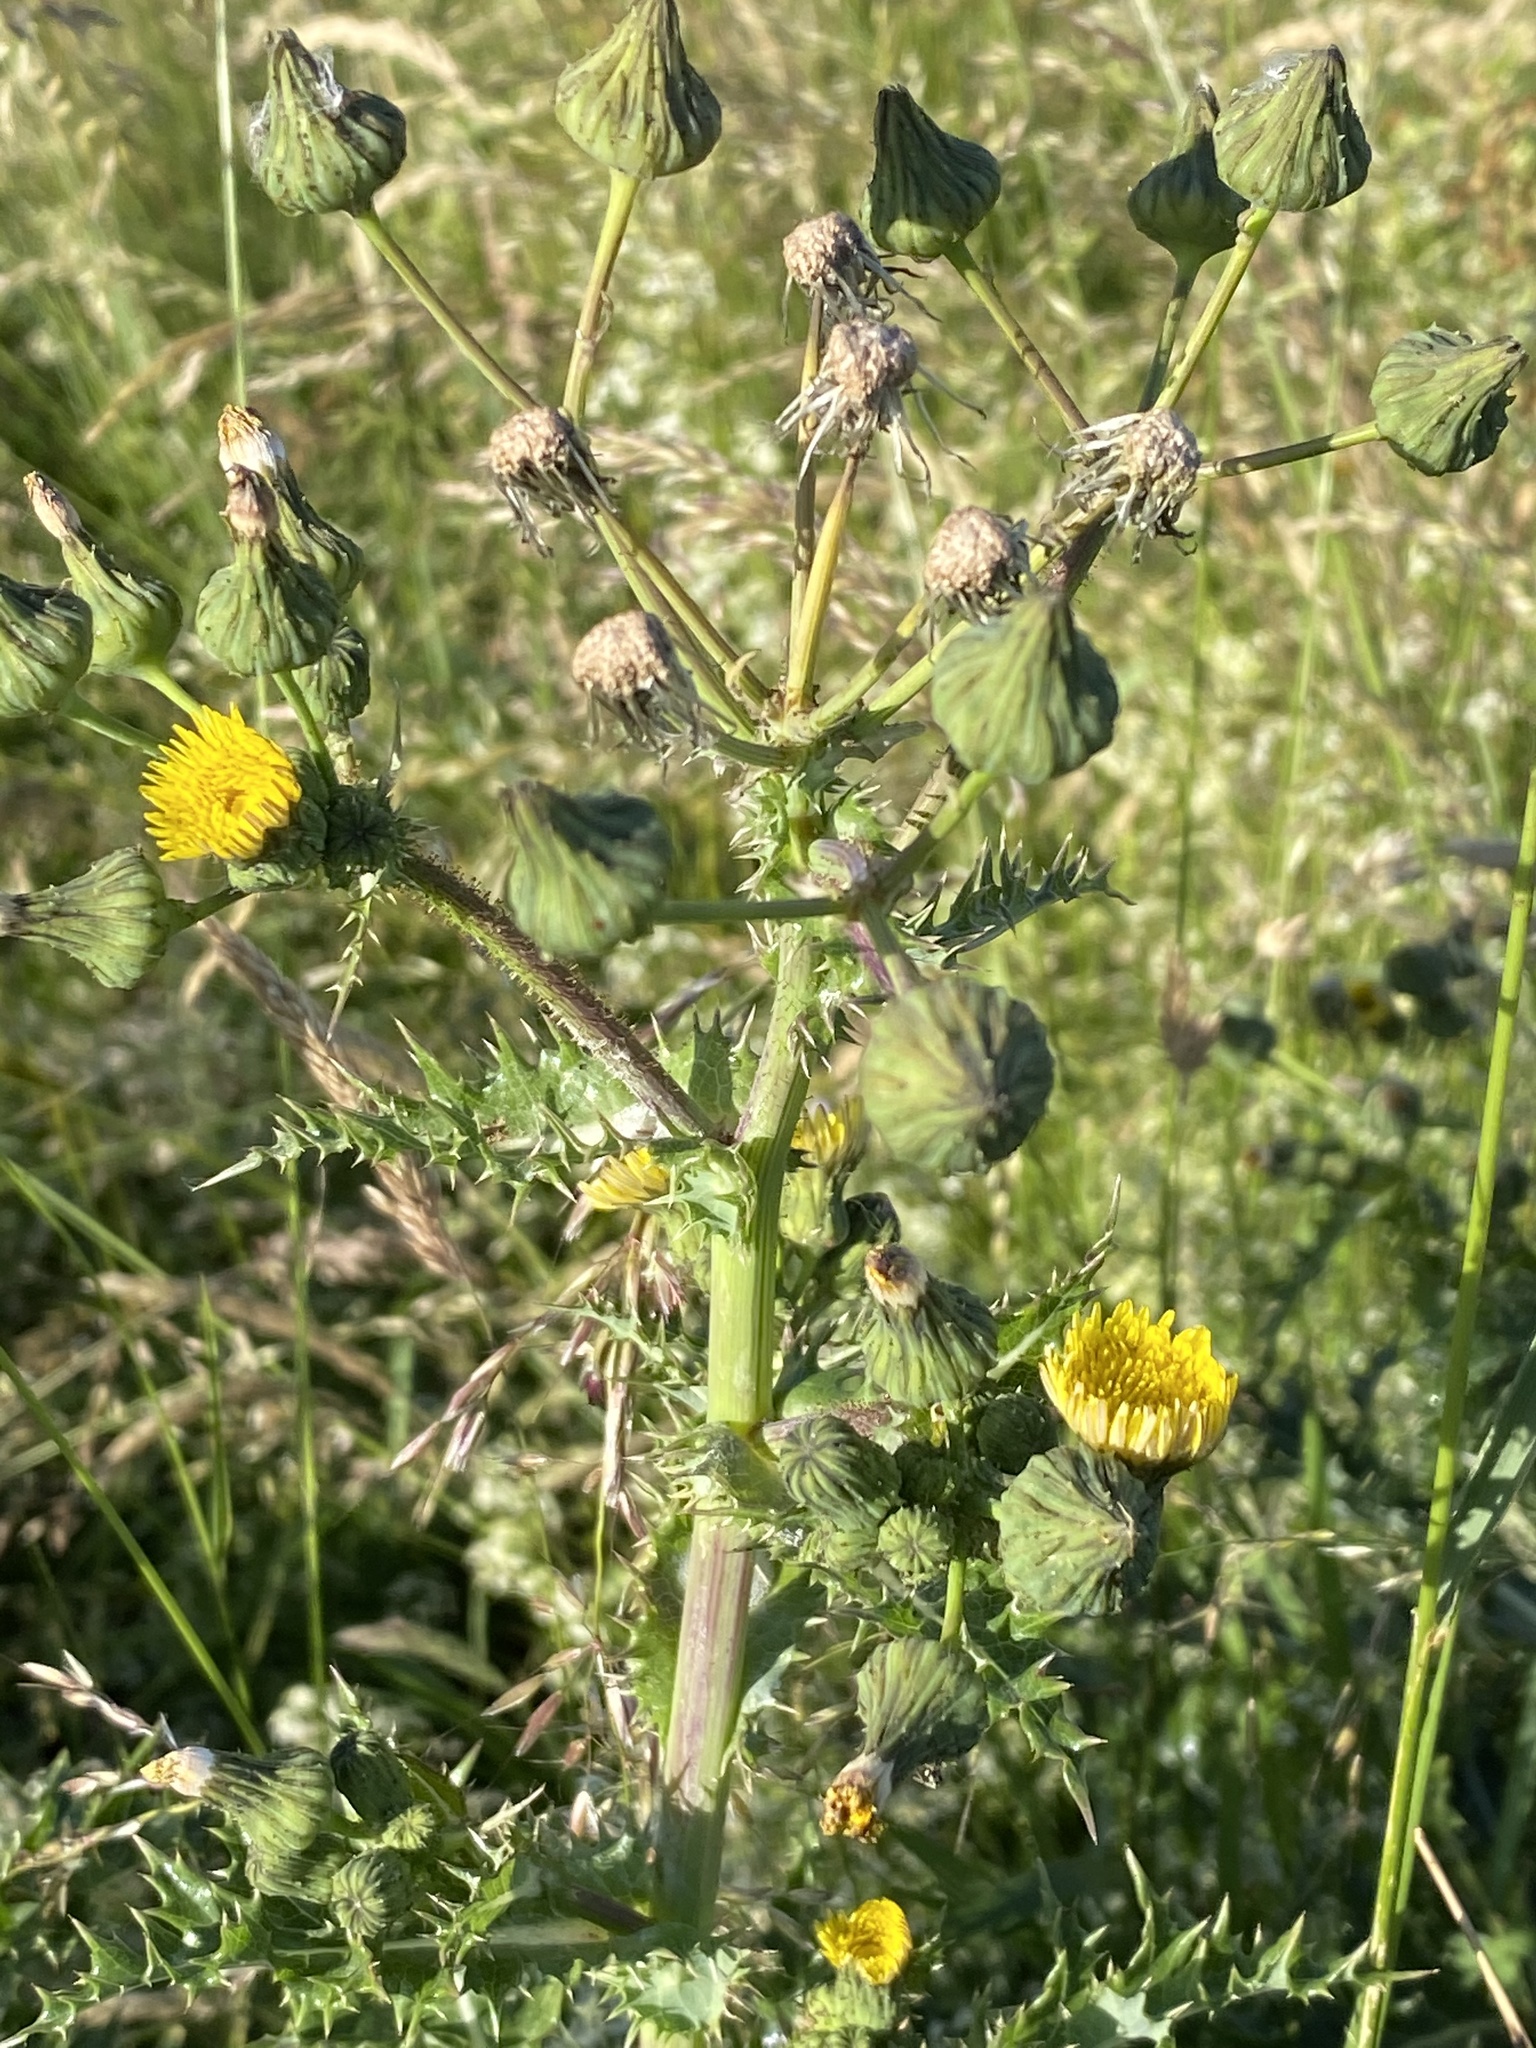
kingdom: Plantae
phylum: Tracheophyta
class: Magnoliopsida
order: Asterales
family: Asteraceae
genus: Sonchus
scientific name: Sonchus asper
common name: Prickly sow-thistle
